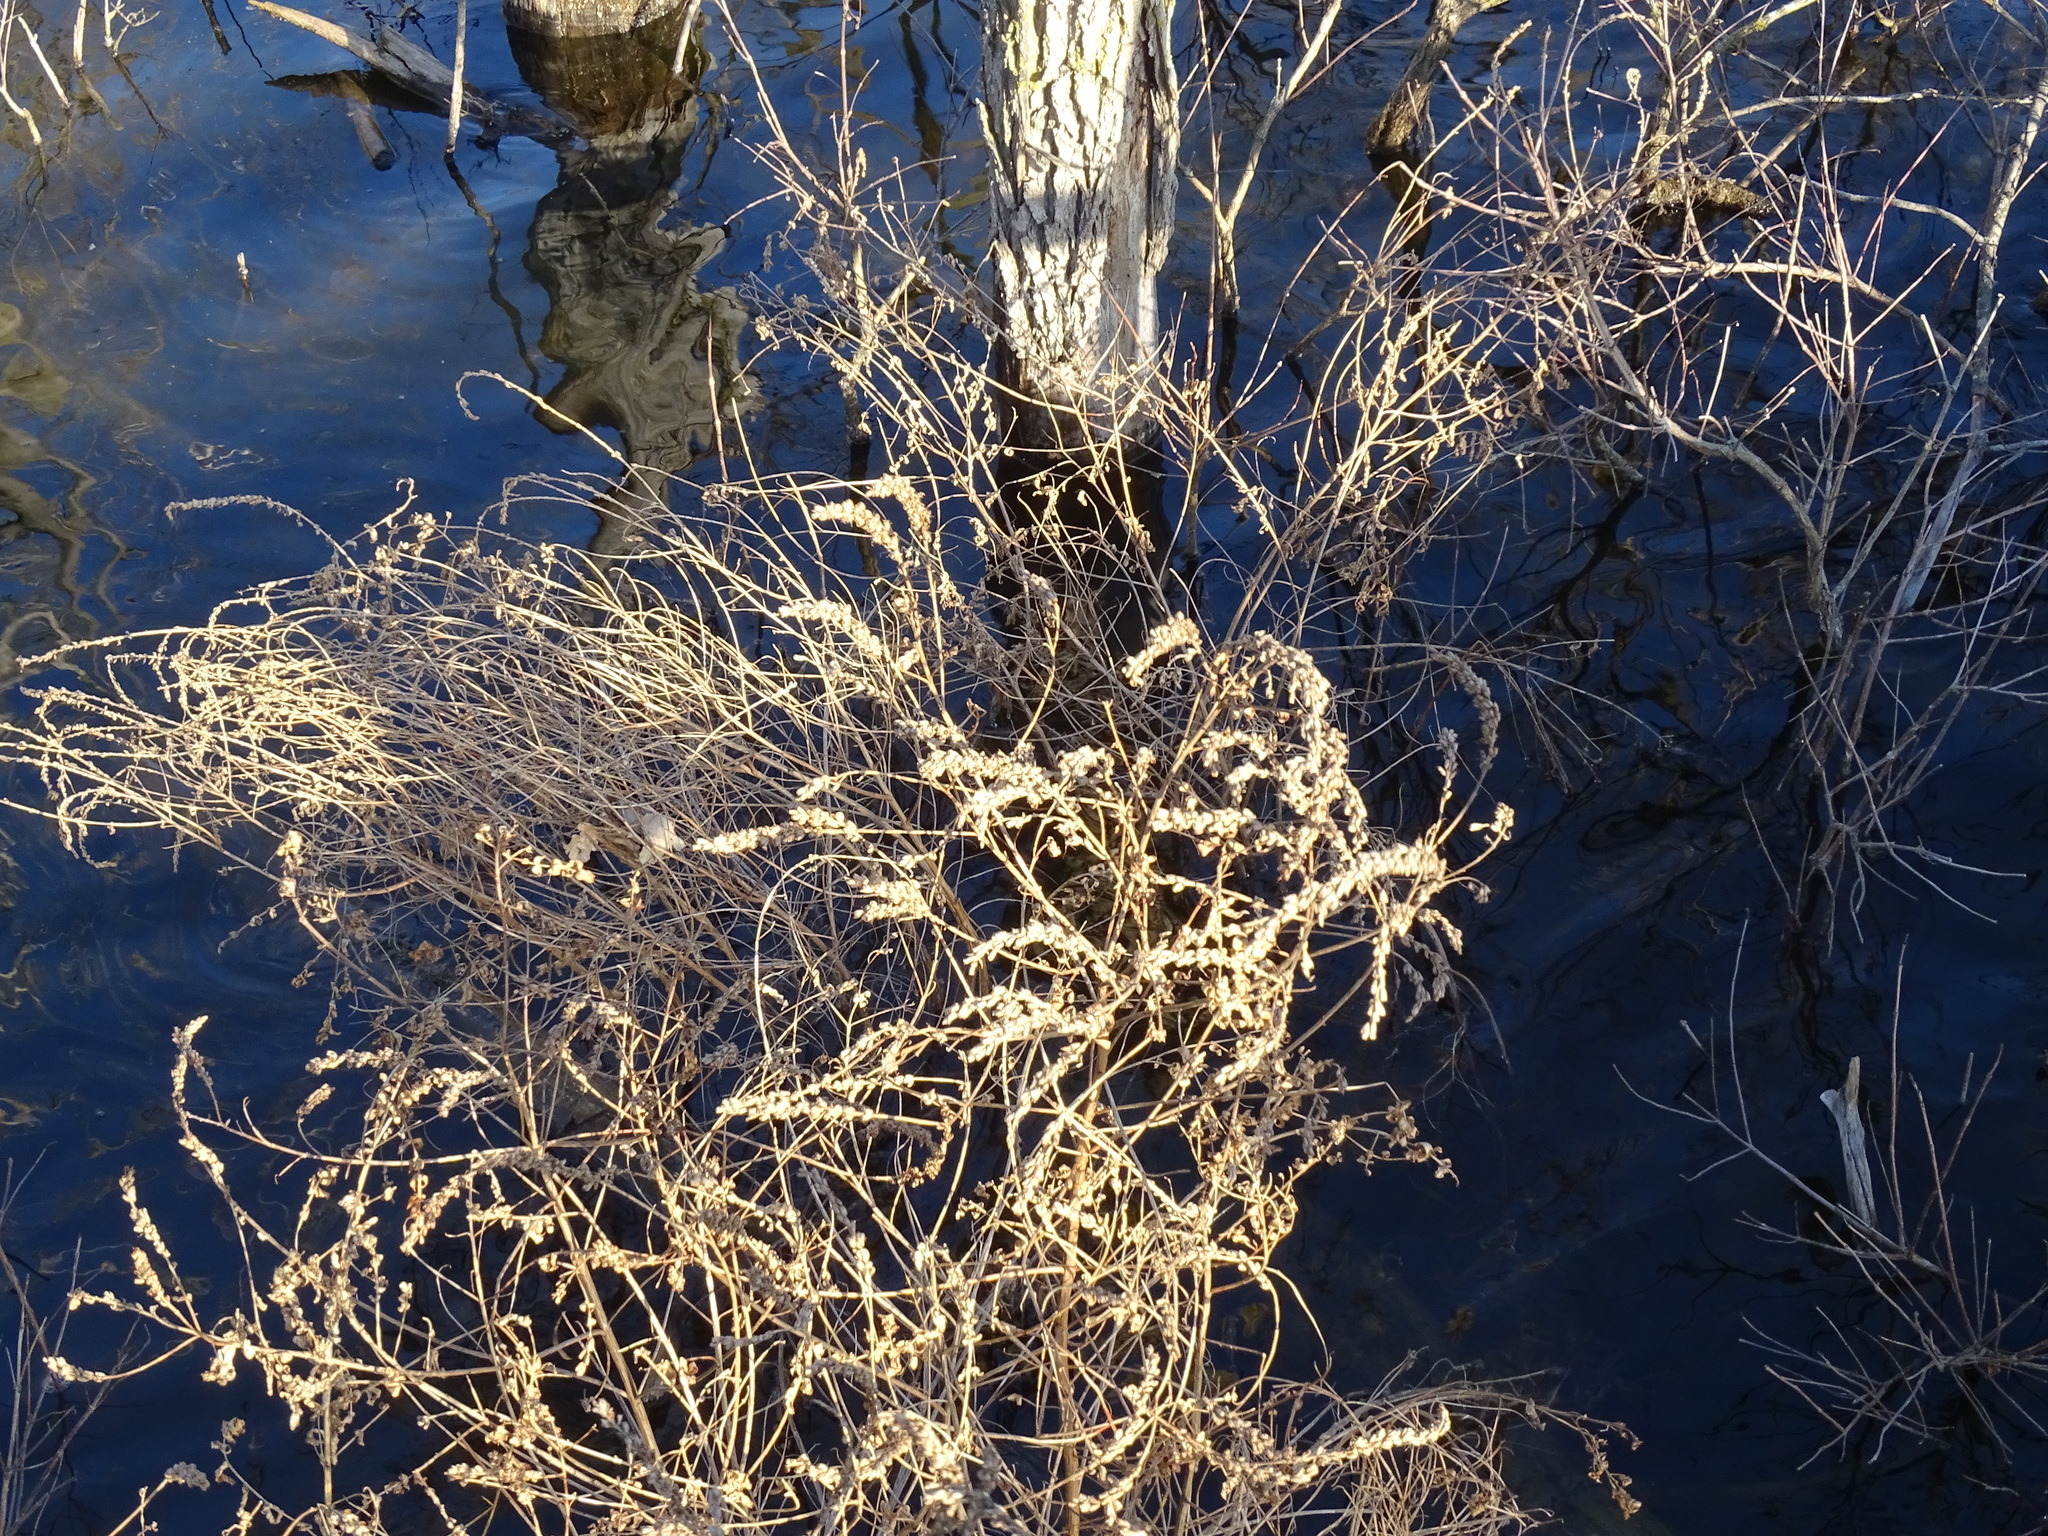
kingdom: Plantae
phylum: Tracheophyta
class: Magnoliopsida
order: Myrtales
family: Lythraceae
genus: Lythrum
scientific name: Lythrum salicaria
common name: Purple loosestrife
